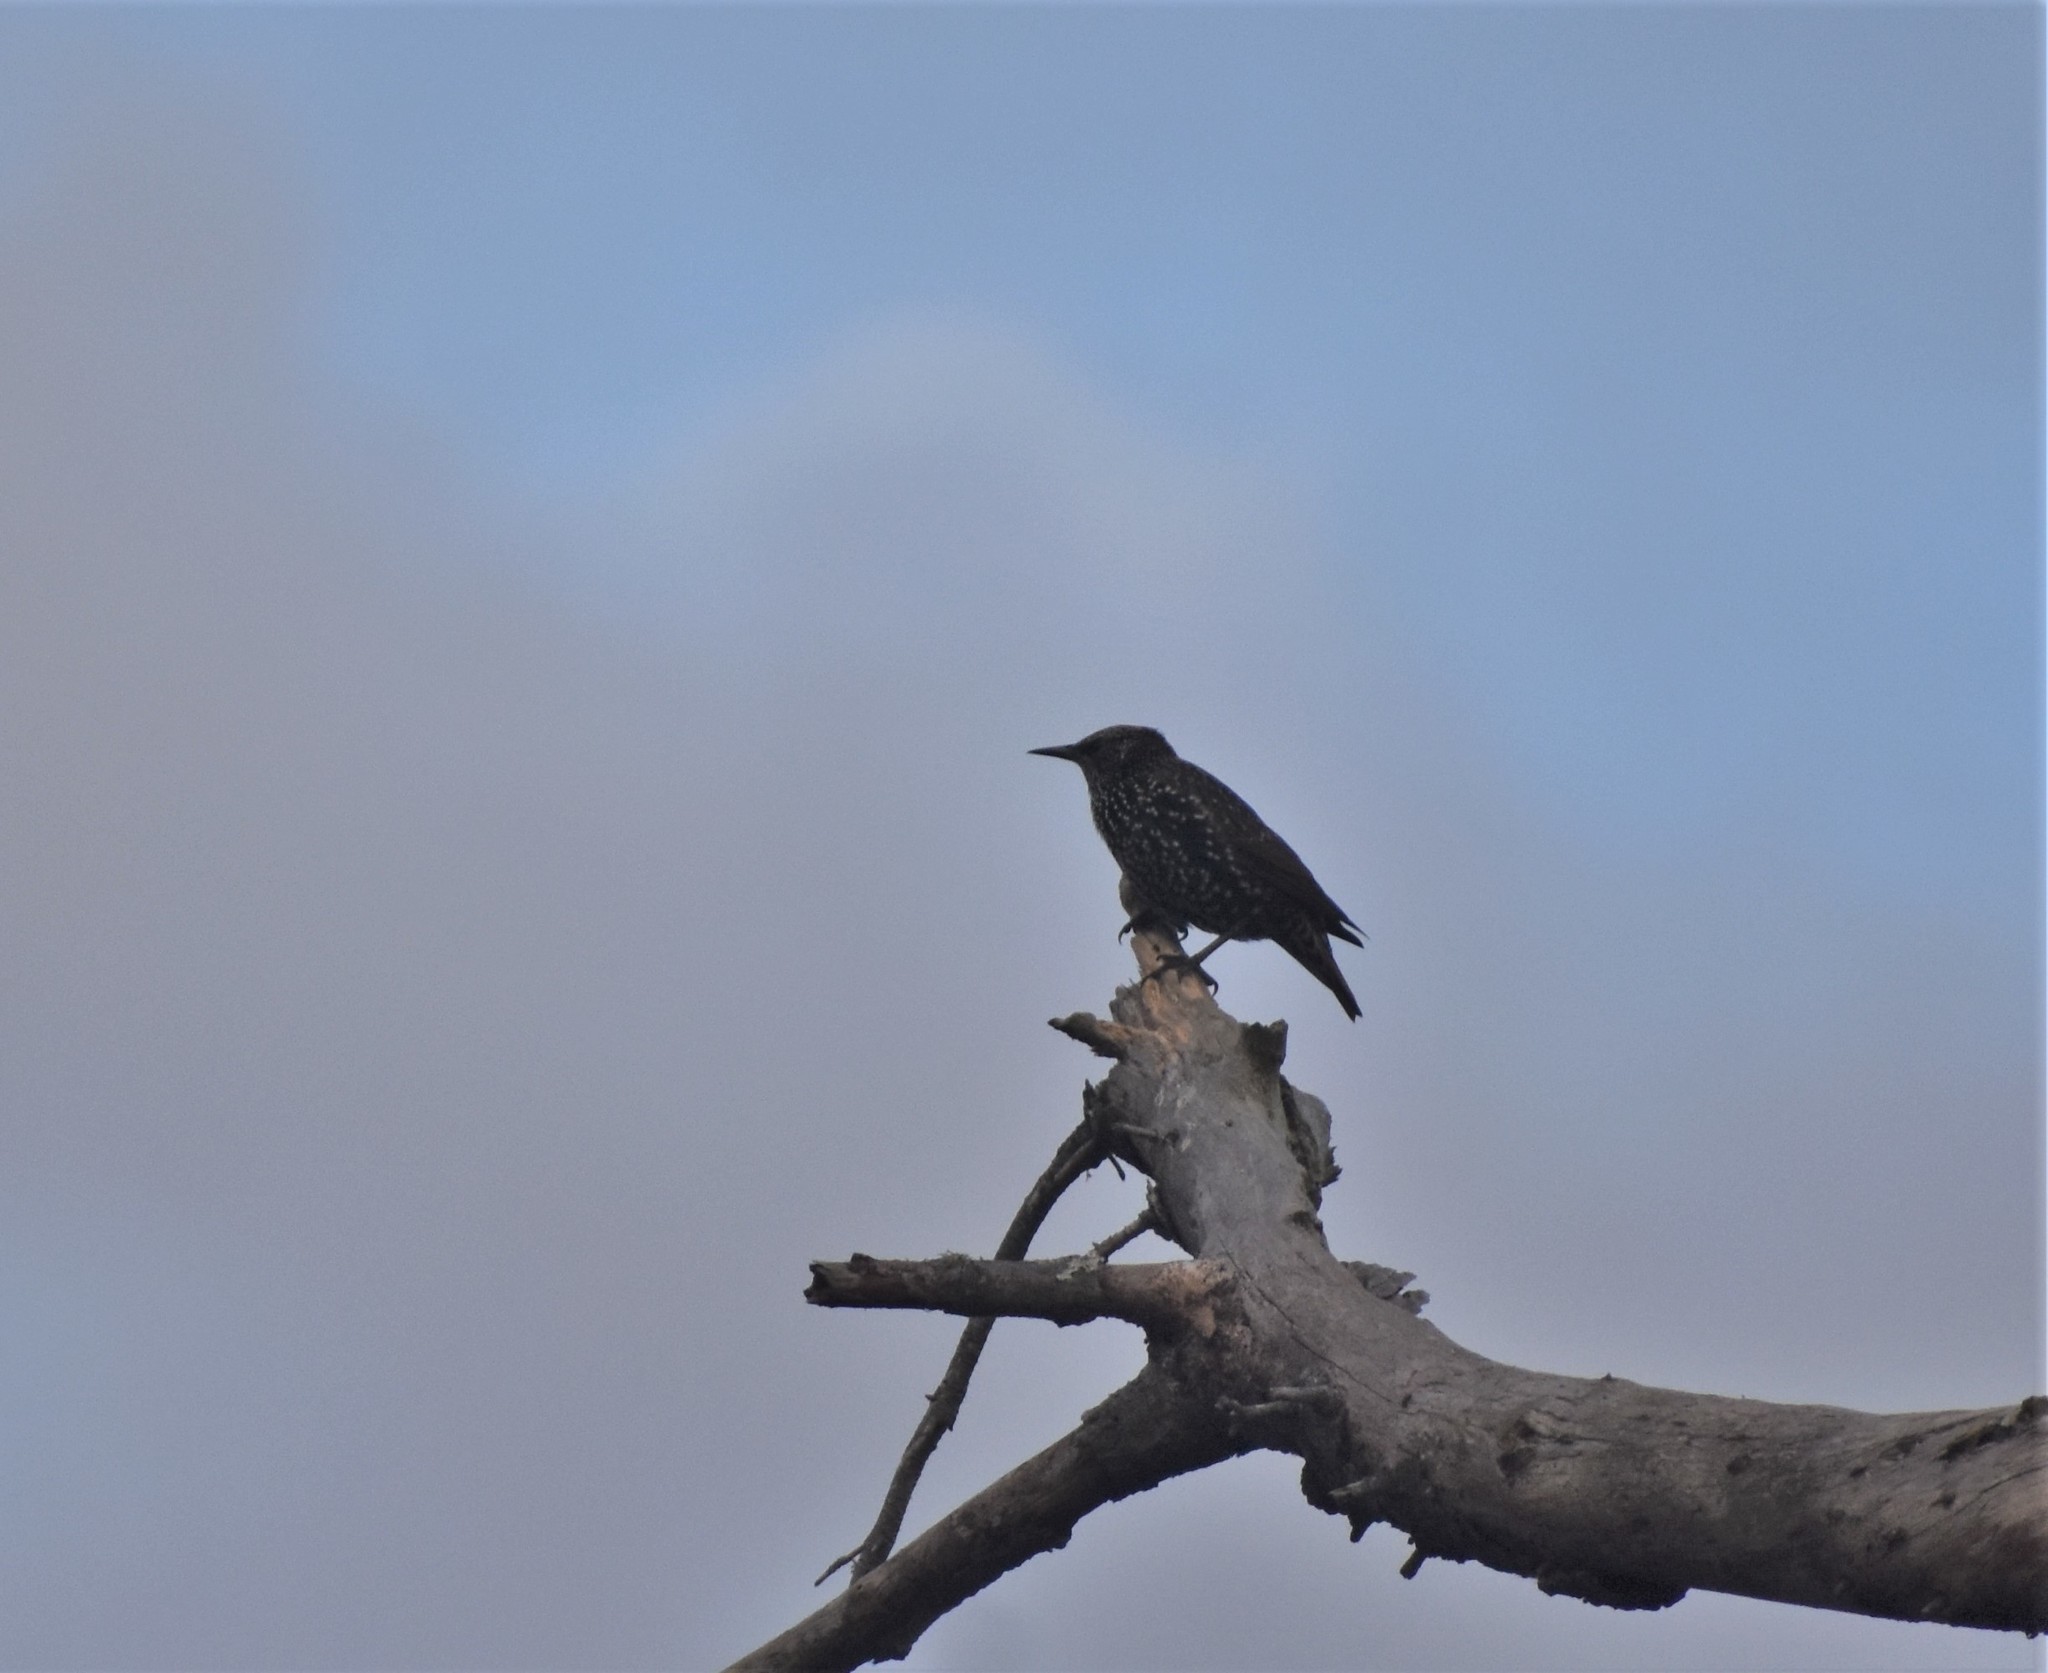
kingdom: Animalia
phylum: Chordata
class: Aves
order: Passeriformes
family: Sturnidae
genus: Sturnus
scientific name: Sturnus vulgaris
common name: Common starling
